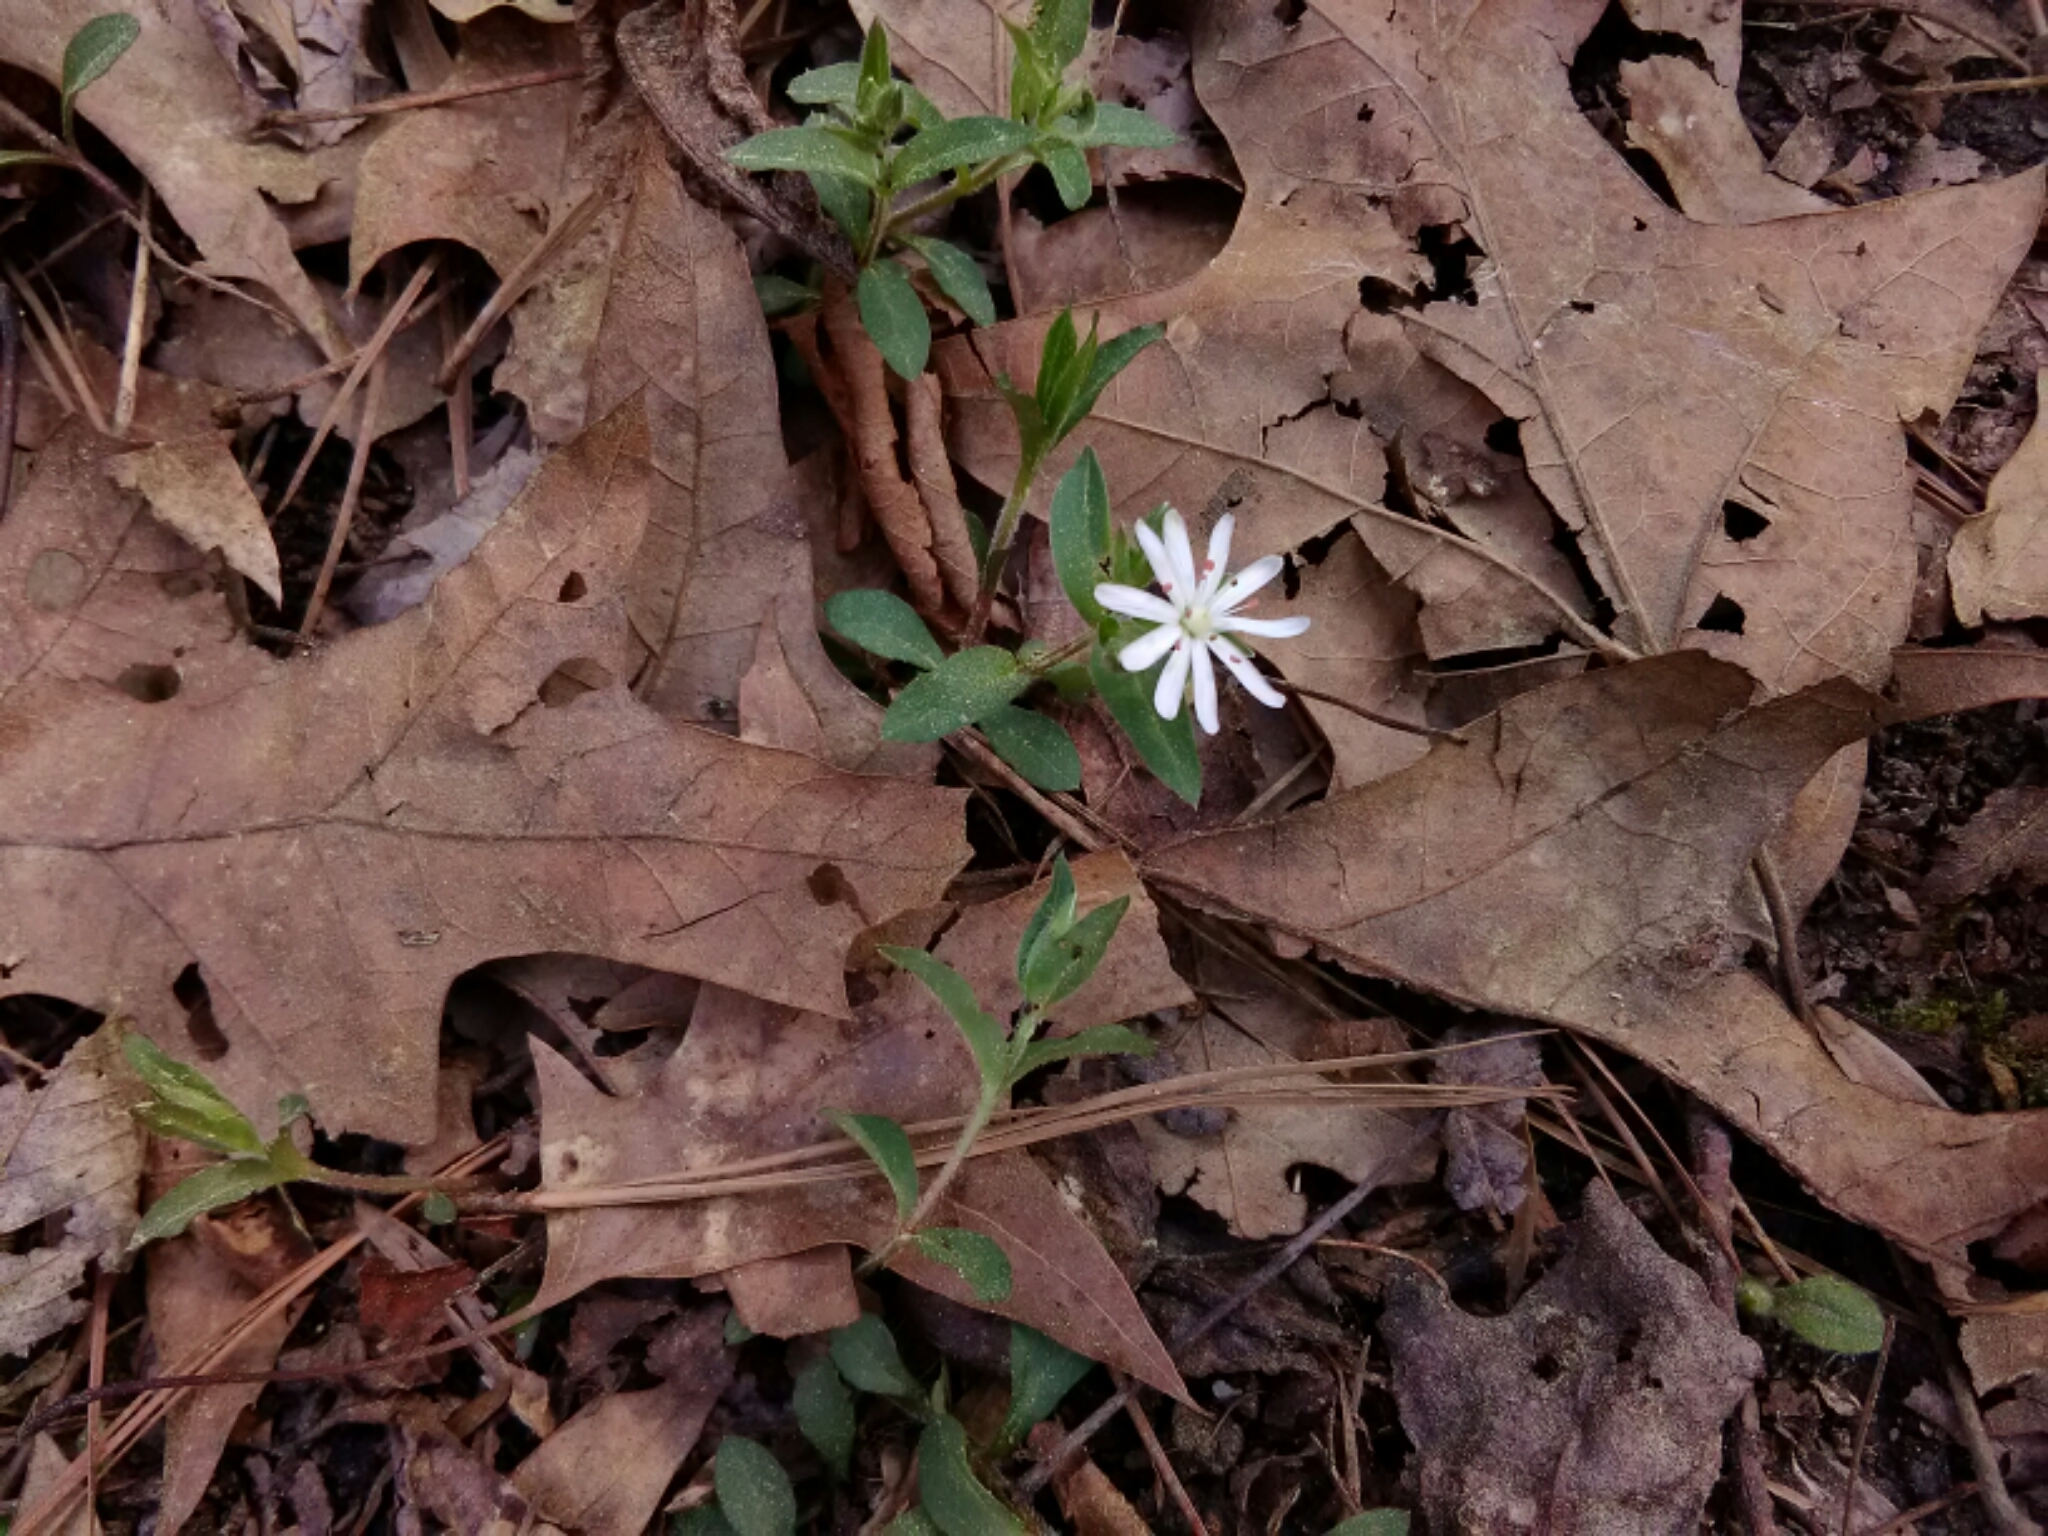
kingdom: Plantae
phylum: Tracheophyta
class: Magnoliopsida
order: Caryophyllales
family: Caryophyllaceae
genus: Stellaria
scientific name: Stellaria pubera
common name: Star chickweed
